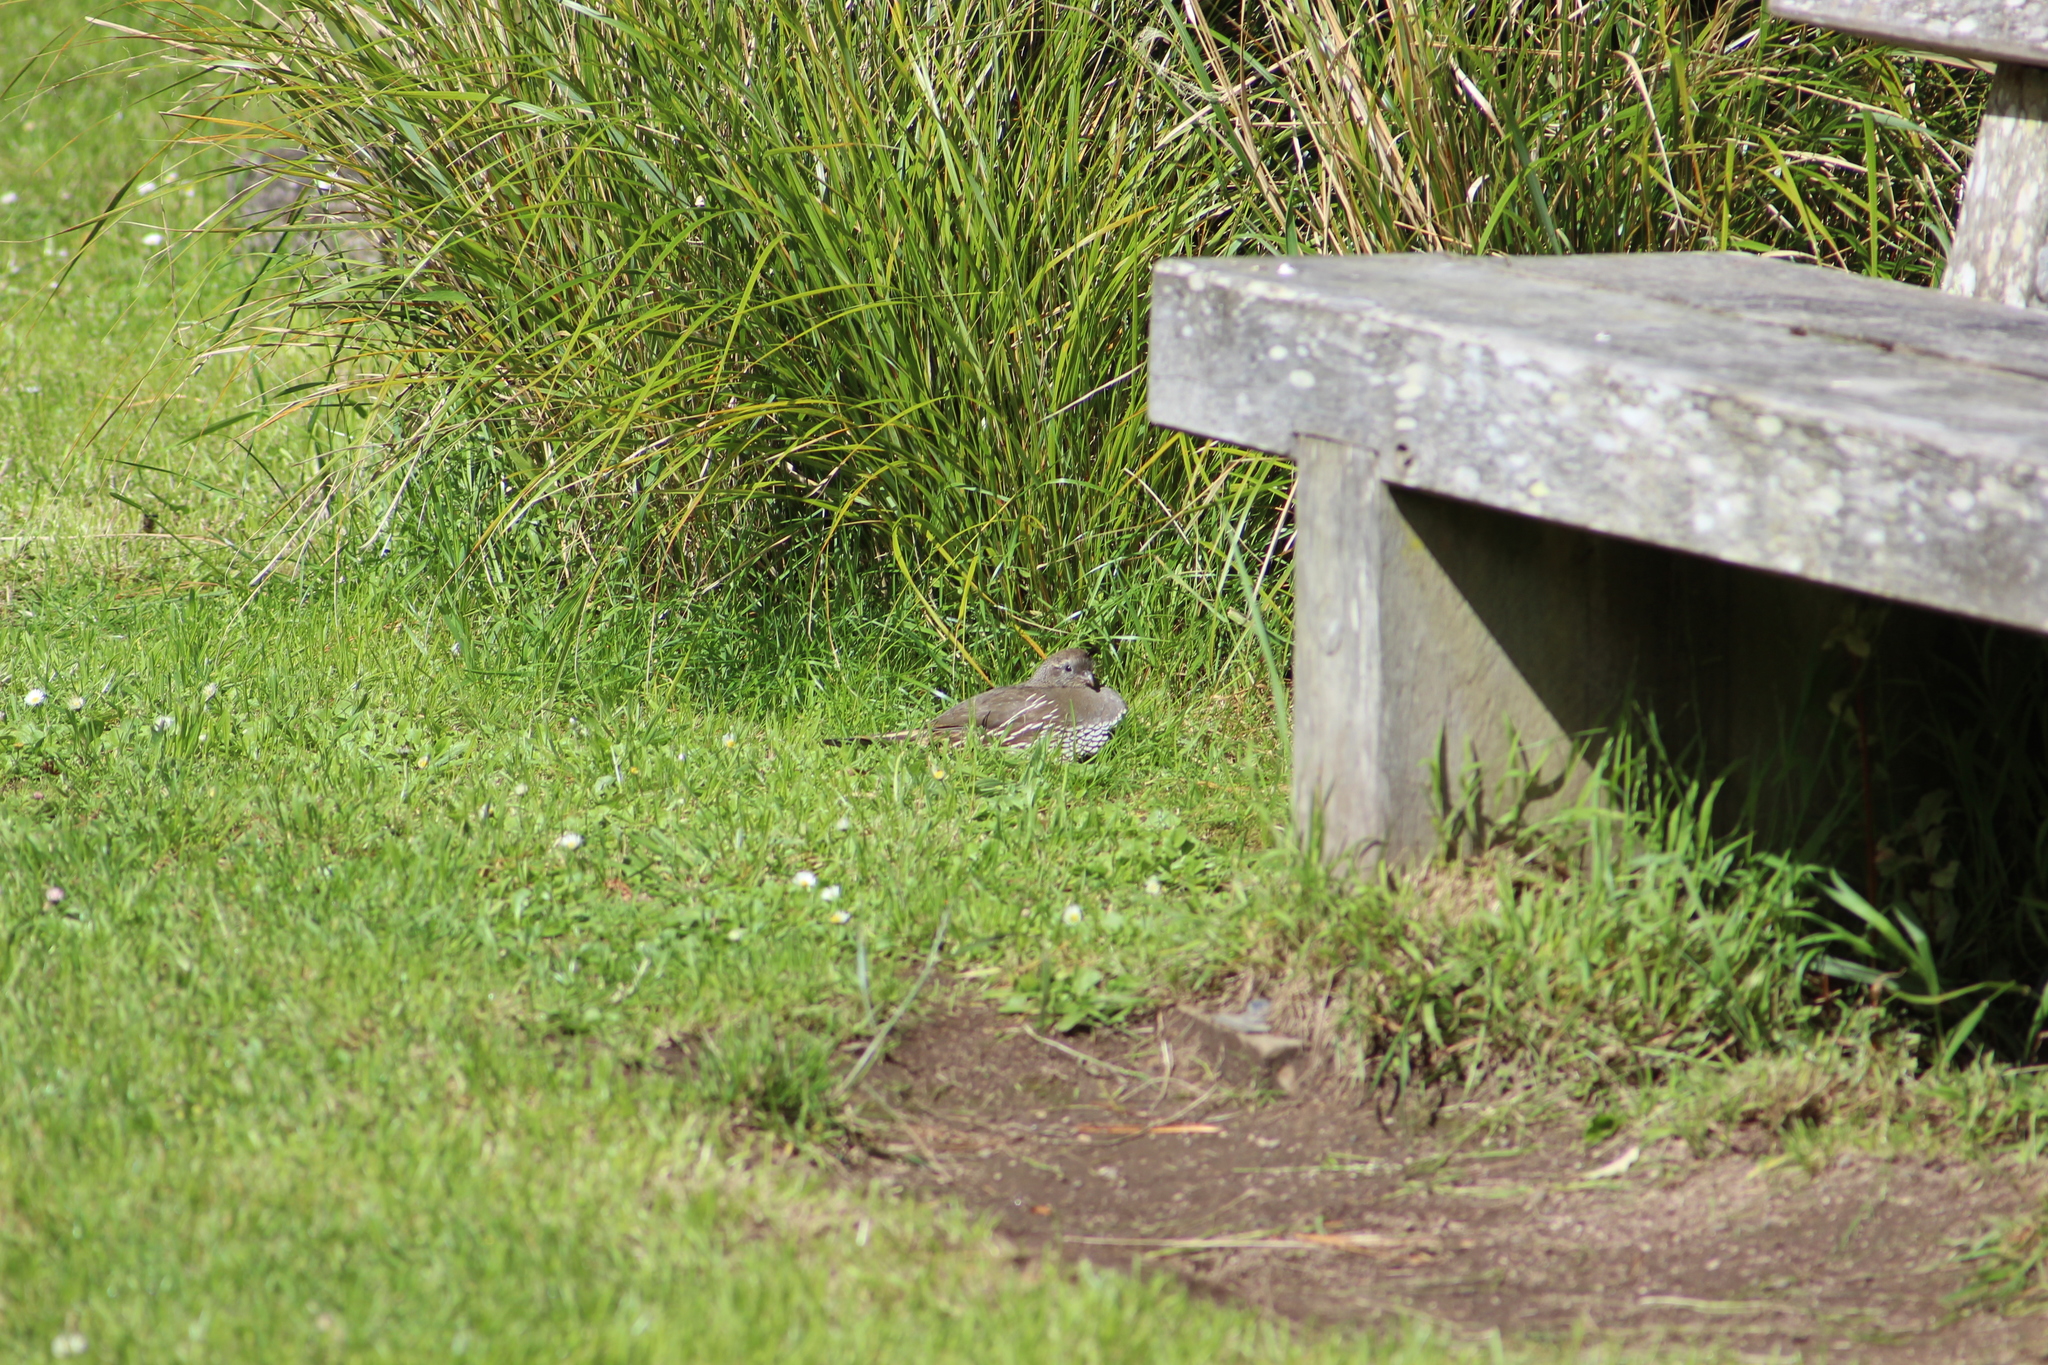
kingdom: Animalia
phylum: Chordata
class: Aves
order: Galliformes
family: Odontophoridae
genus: Callipepla
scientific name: Callipepla californica
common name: California quail
